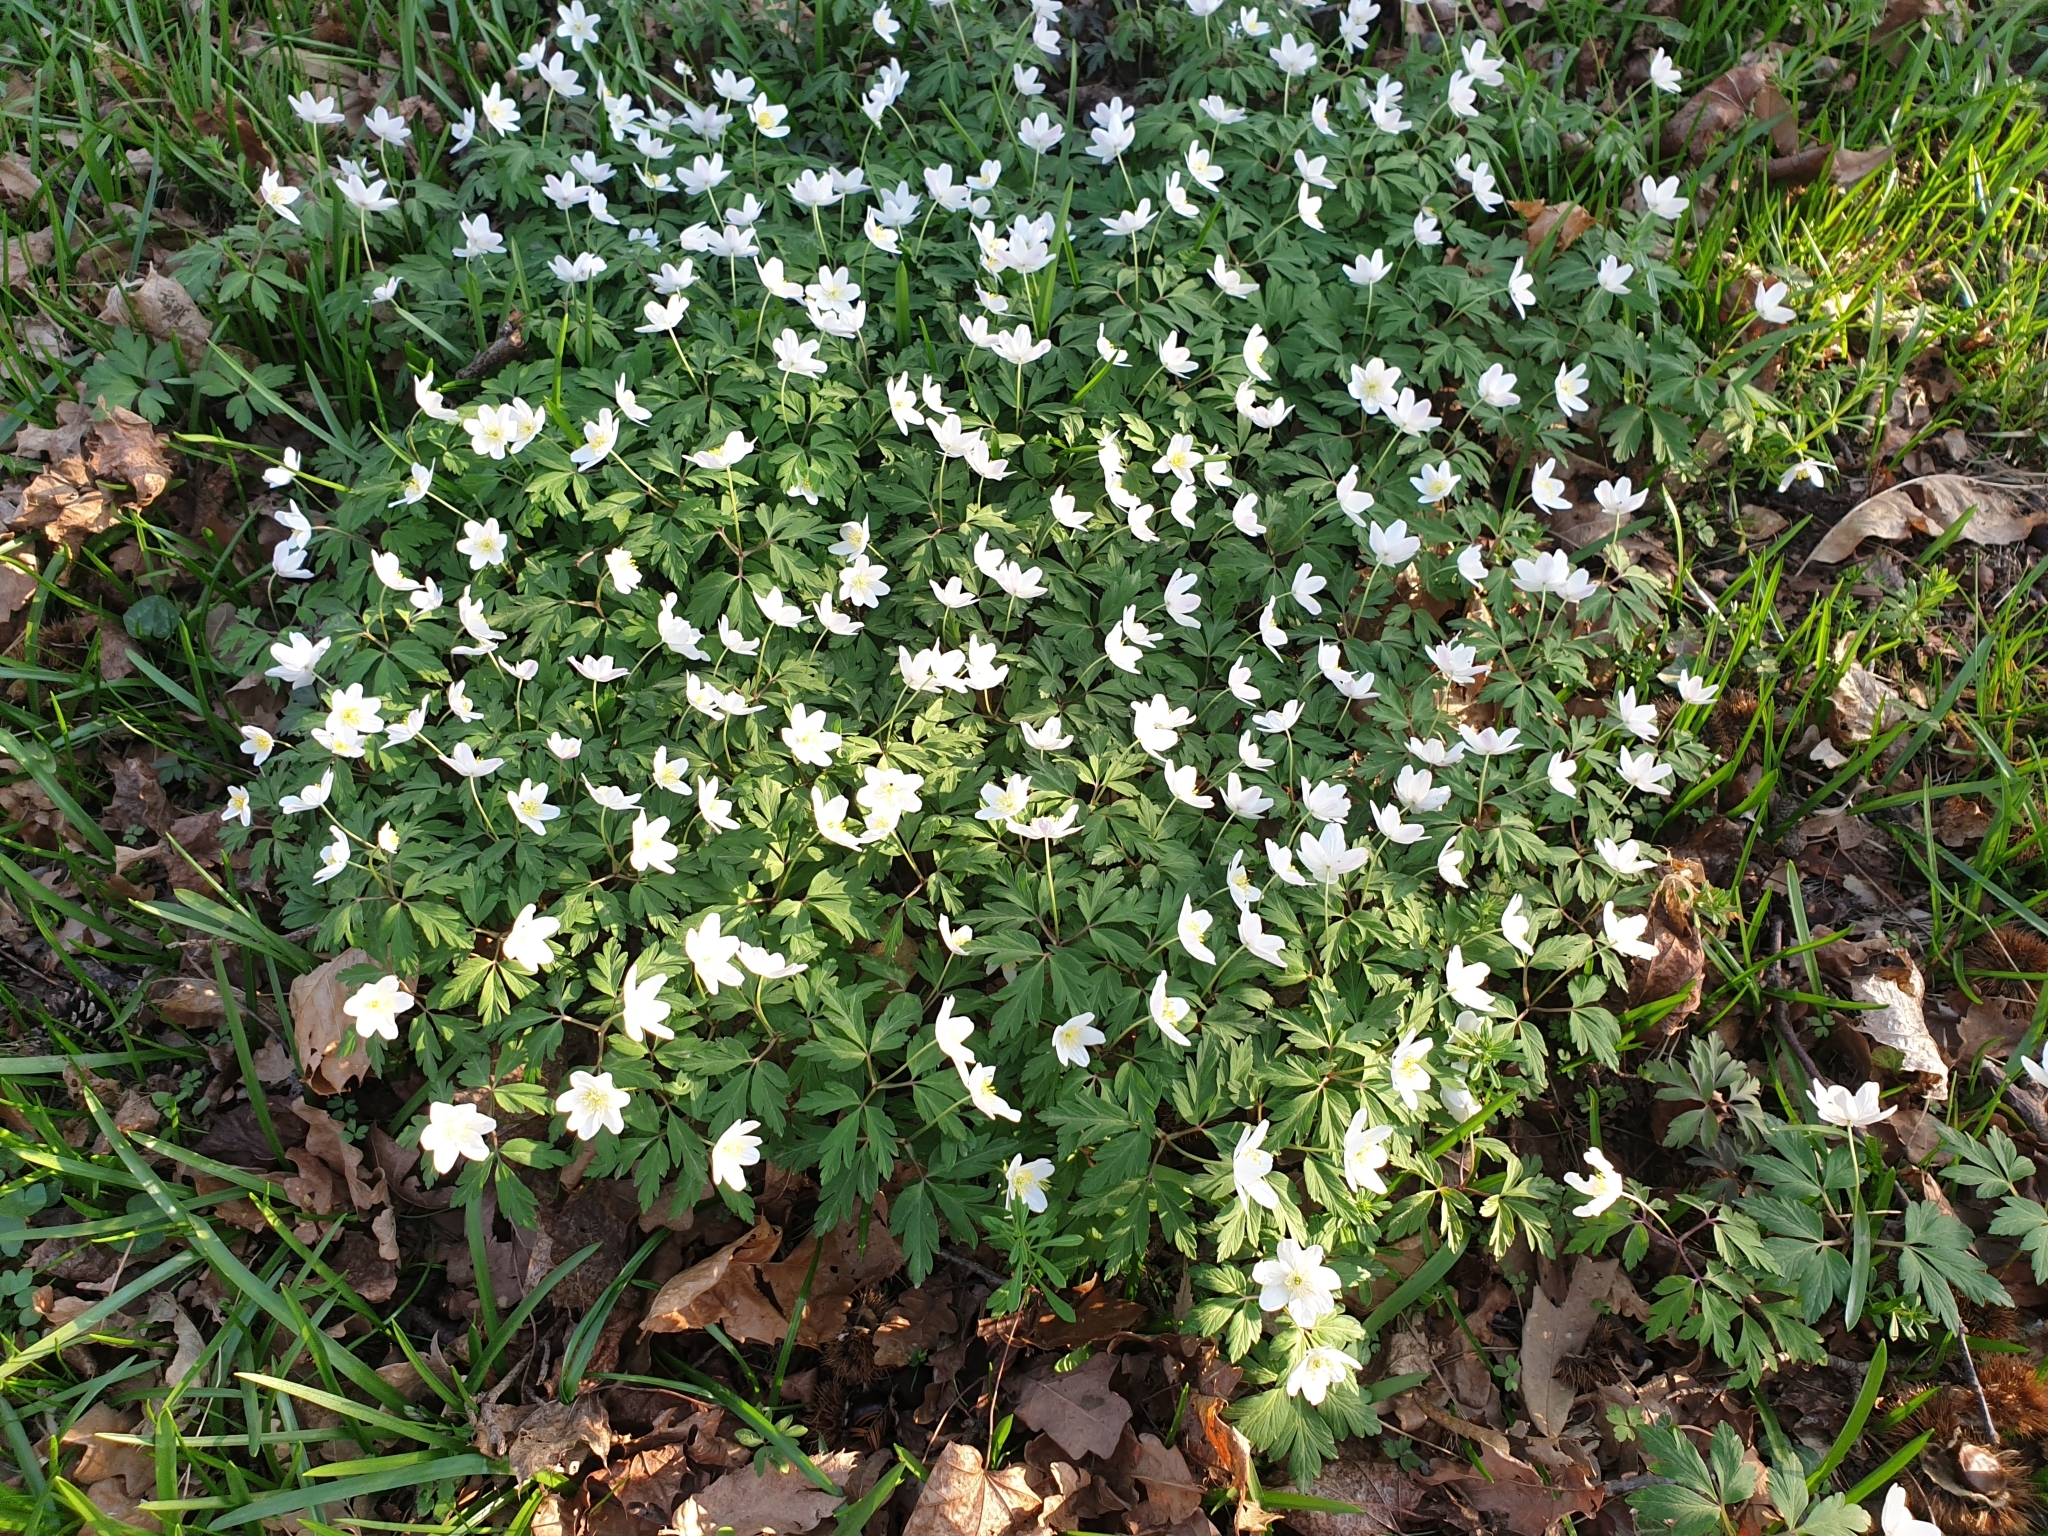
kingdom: Plantae
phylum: Tracheophyta
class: Magnoliopsida
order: Ranunculales
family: Ranunculaceae
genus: Anemone
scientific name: Anemone nemorosa
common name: Wood anemone
